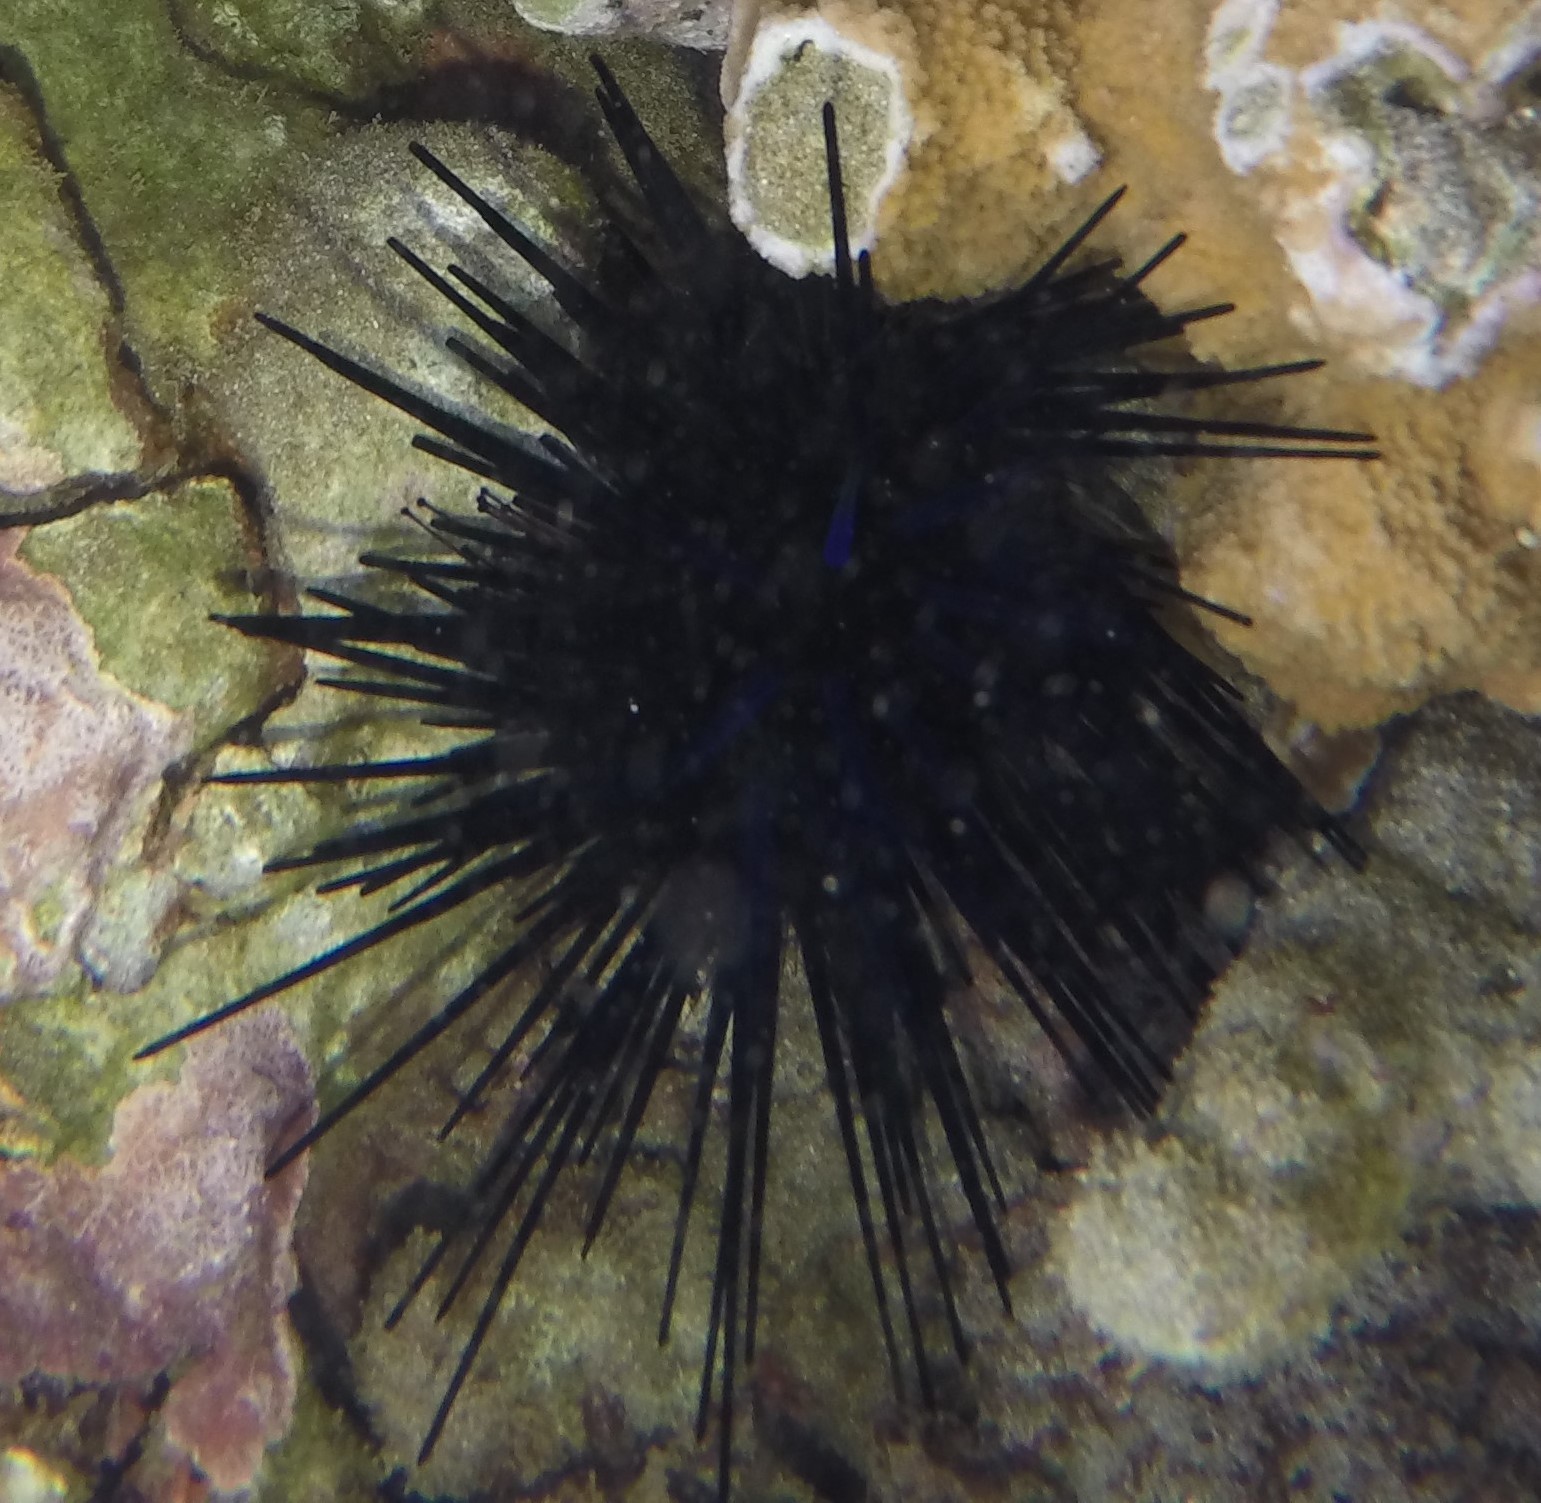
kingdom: Animalia
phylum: Echinodermata
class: Echinoidea
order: Diadematoida
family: Diadematidae
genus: Echinothrix
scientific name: Echinothrix diadema
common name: Schwarzer diademseeigel
